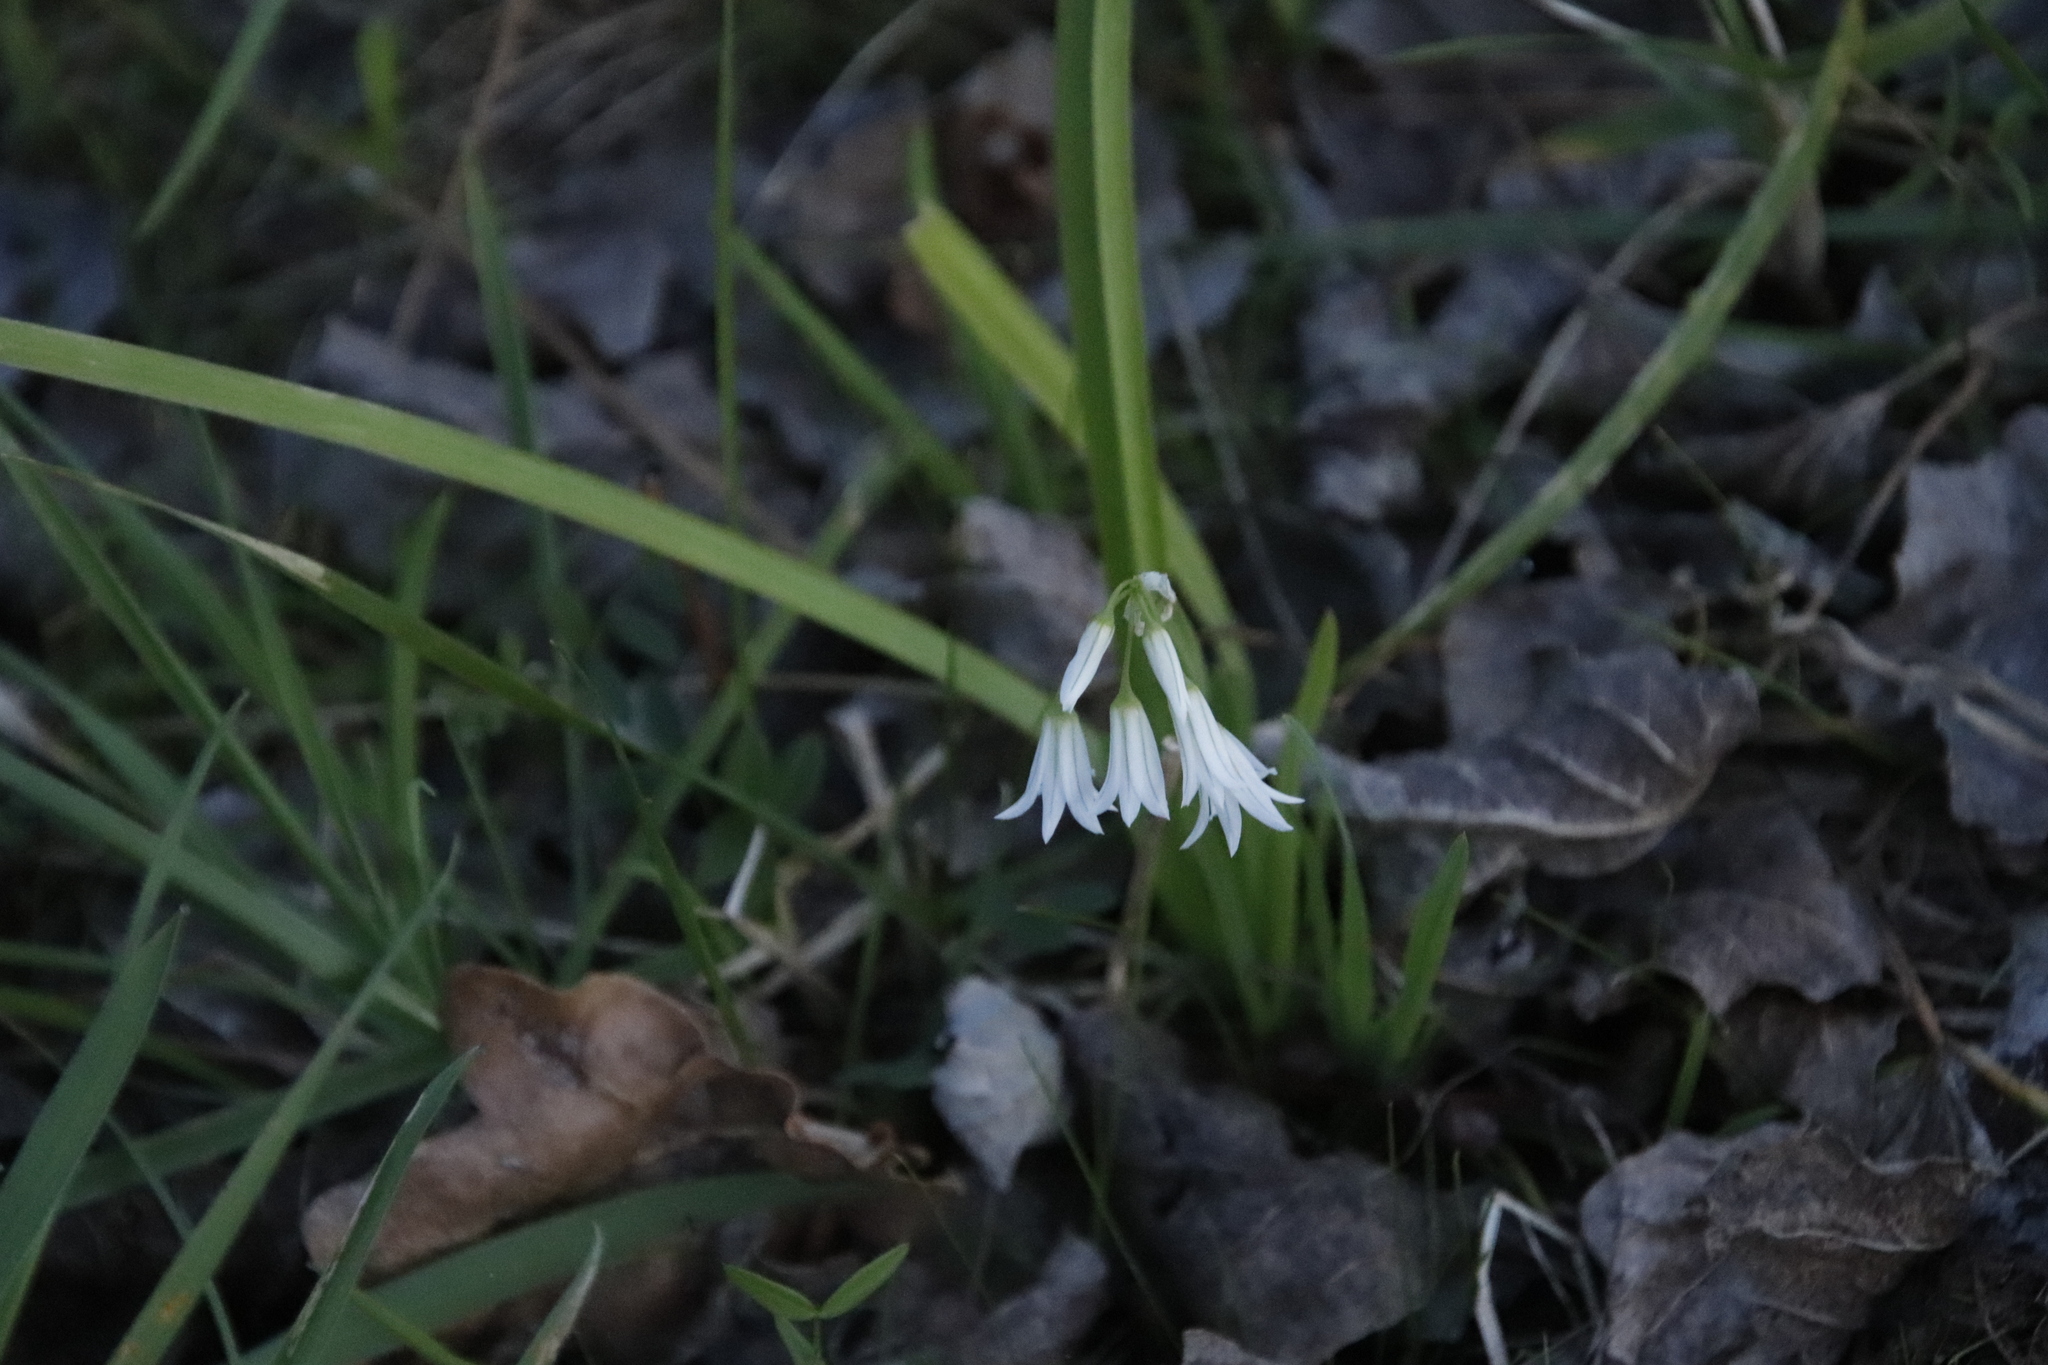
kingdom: Plantae
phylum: Tracheophyta
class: Liliopsida
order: Asparagales
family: Amaryllidaceae
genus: Allium
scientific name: Allium triquetrum
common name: Three-cornered garlic
